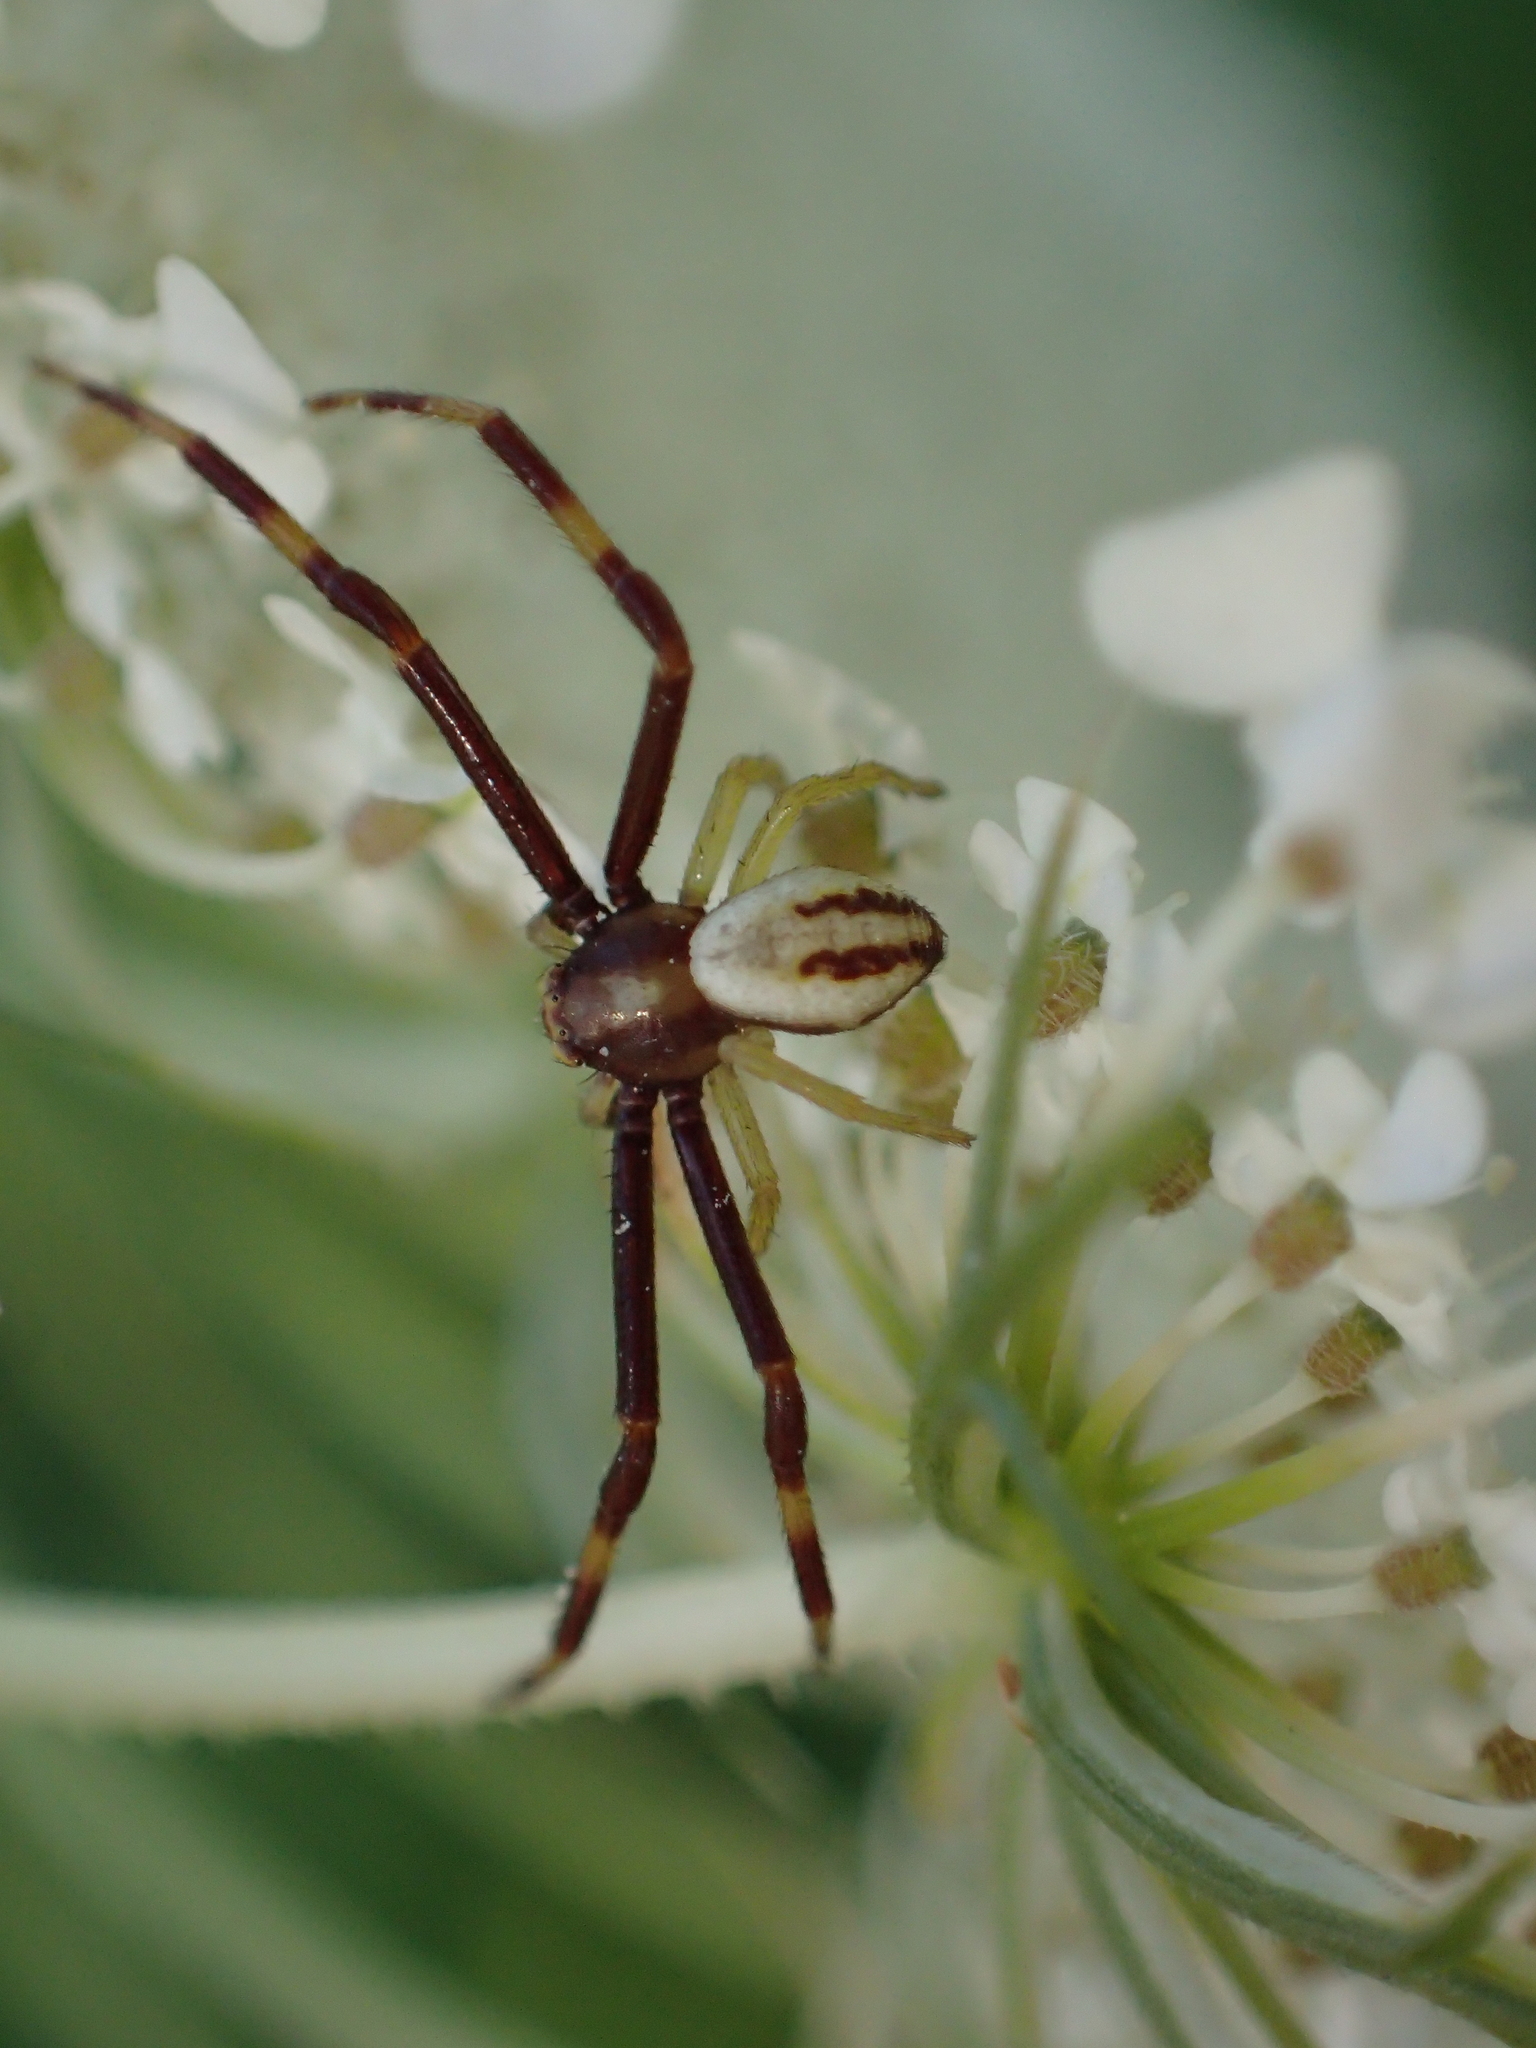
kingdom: Animalia
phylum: Arthropoda
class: Arachnida
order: Araneae
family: Thomisidae
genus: Misumena
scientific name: Misumena vatia
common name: Goldenrod crab spider
